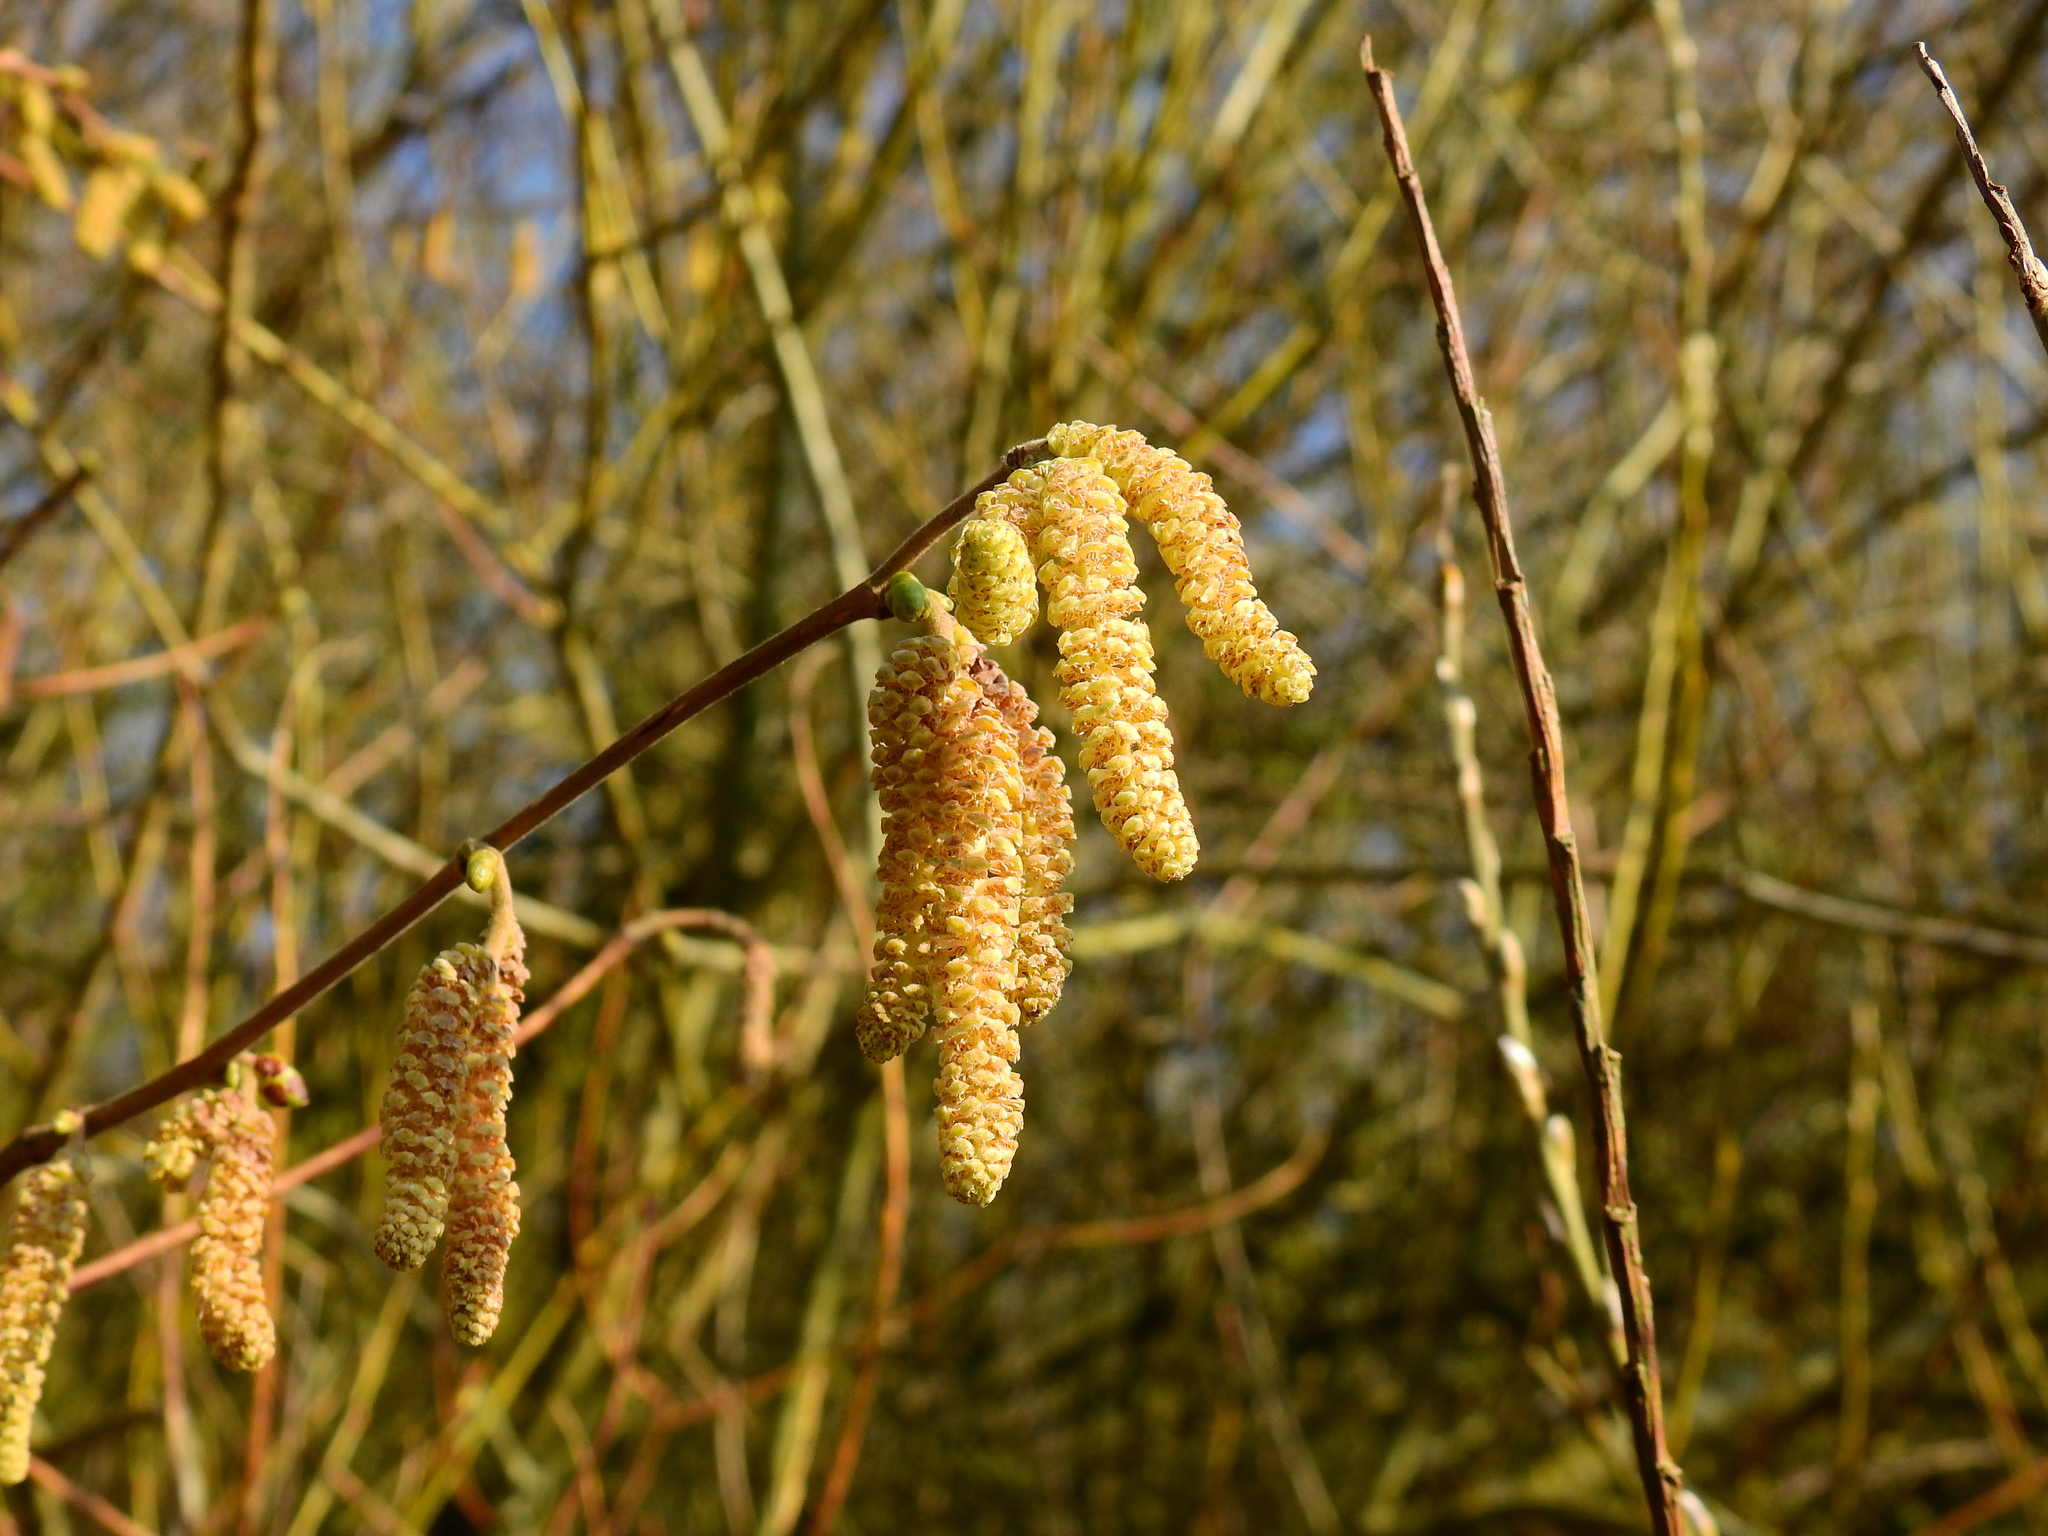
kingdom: Plantae
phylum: Tracheophyta
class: Magnoliopsida
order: Fagales
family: Betulaceae
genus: Corylus
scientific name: Corylus avellana
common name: European hazel
